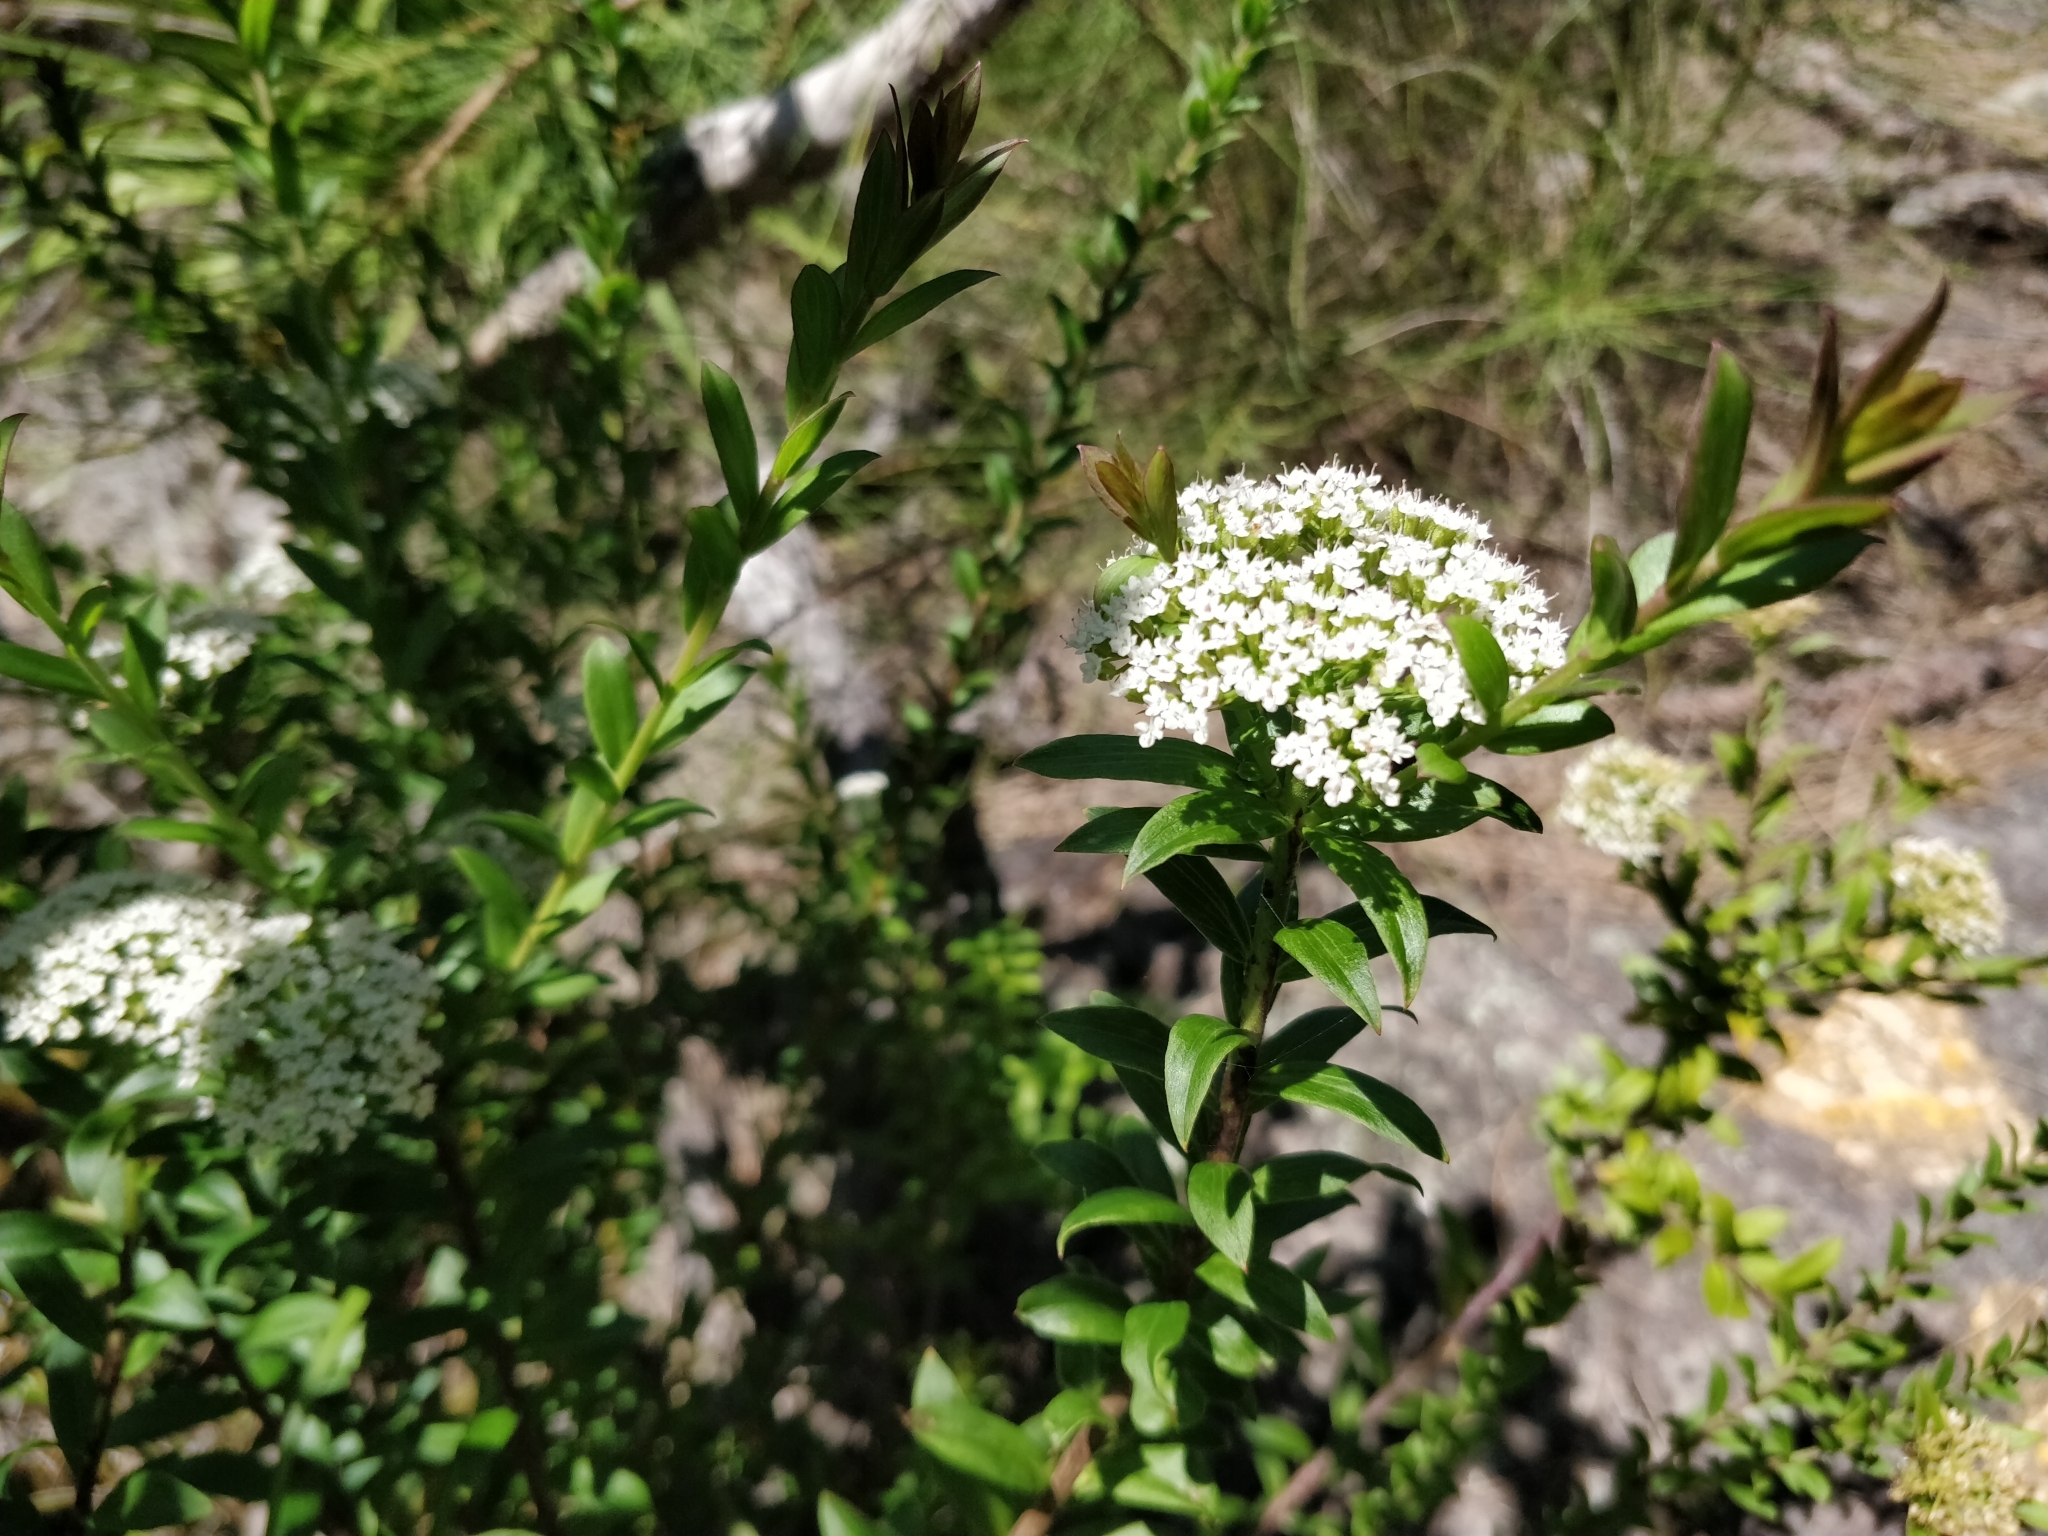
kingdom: Plantae
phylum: Tracheophyta
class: Magnoliopsida
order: Apiales
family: Apiaceae
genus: Platysace
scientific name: Platysace lanceolata
